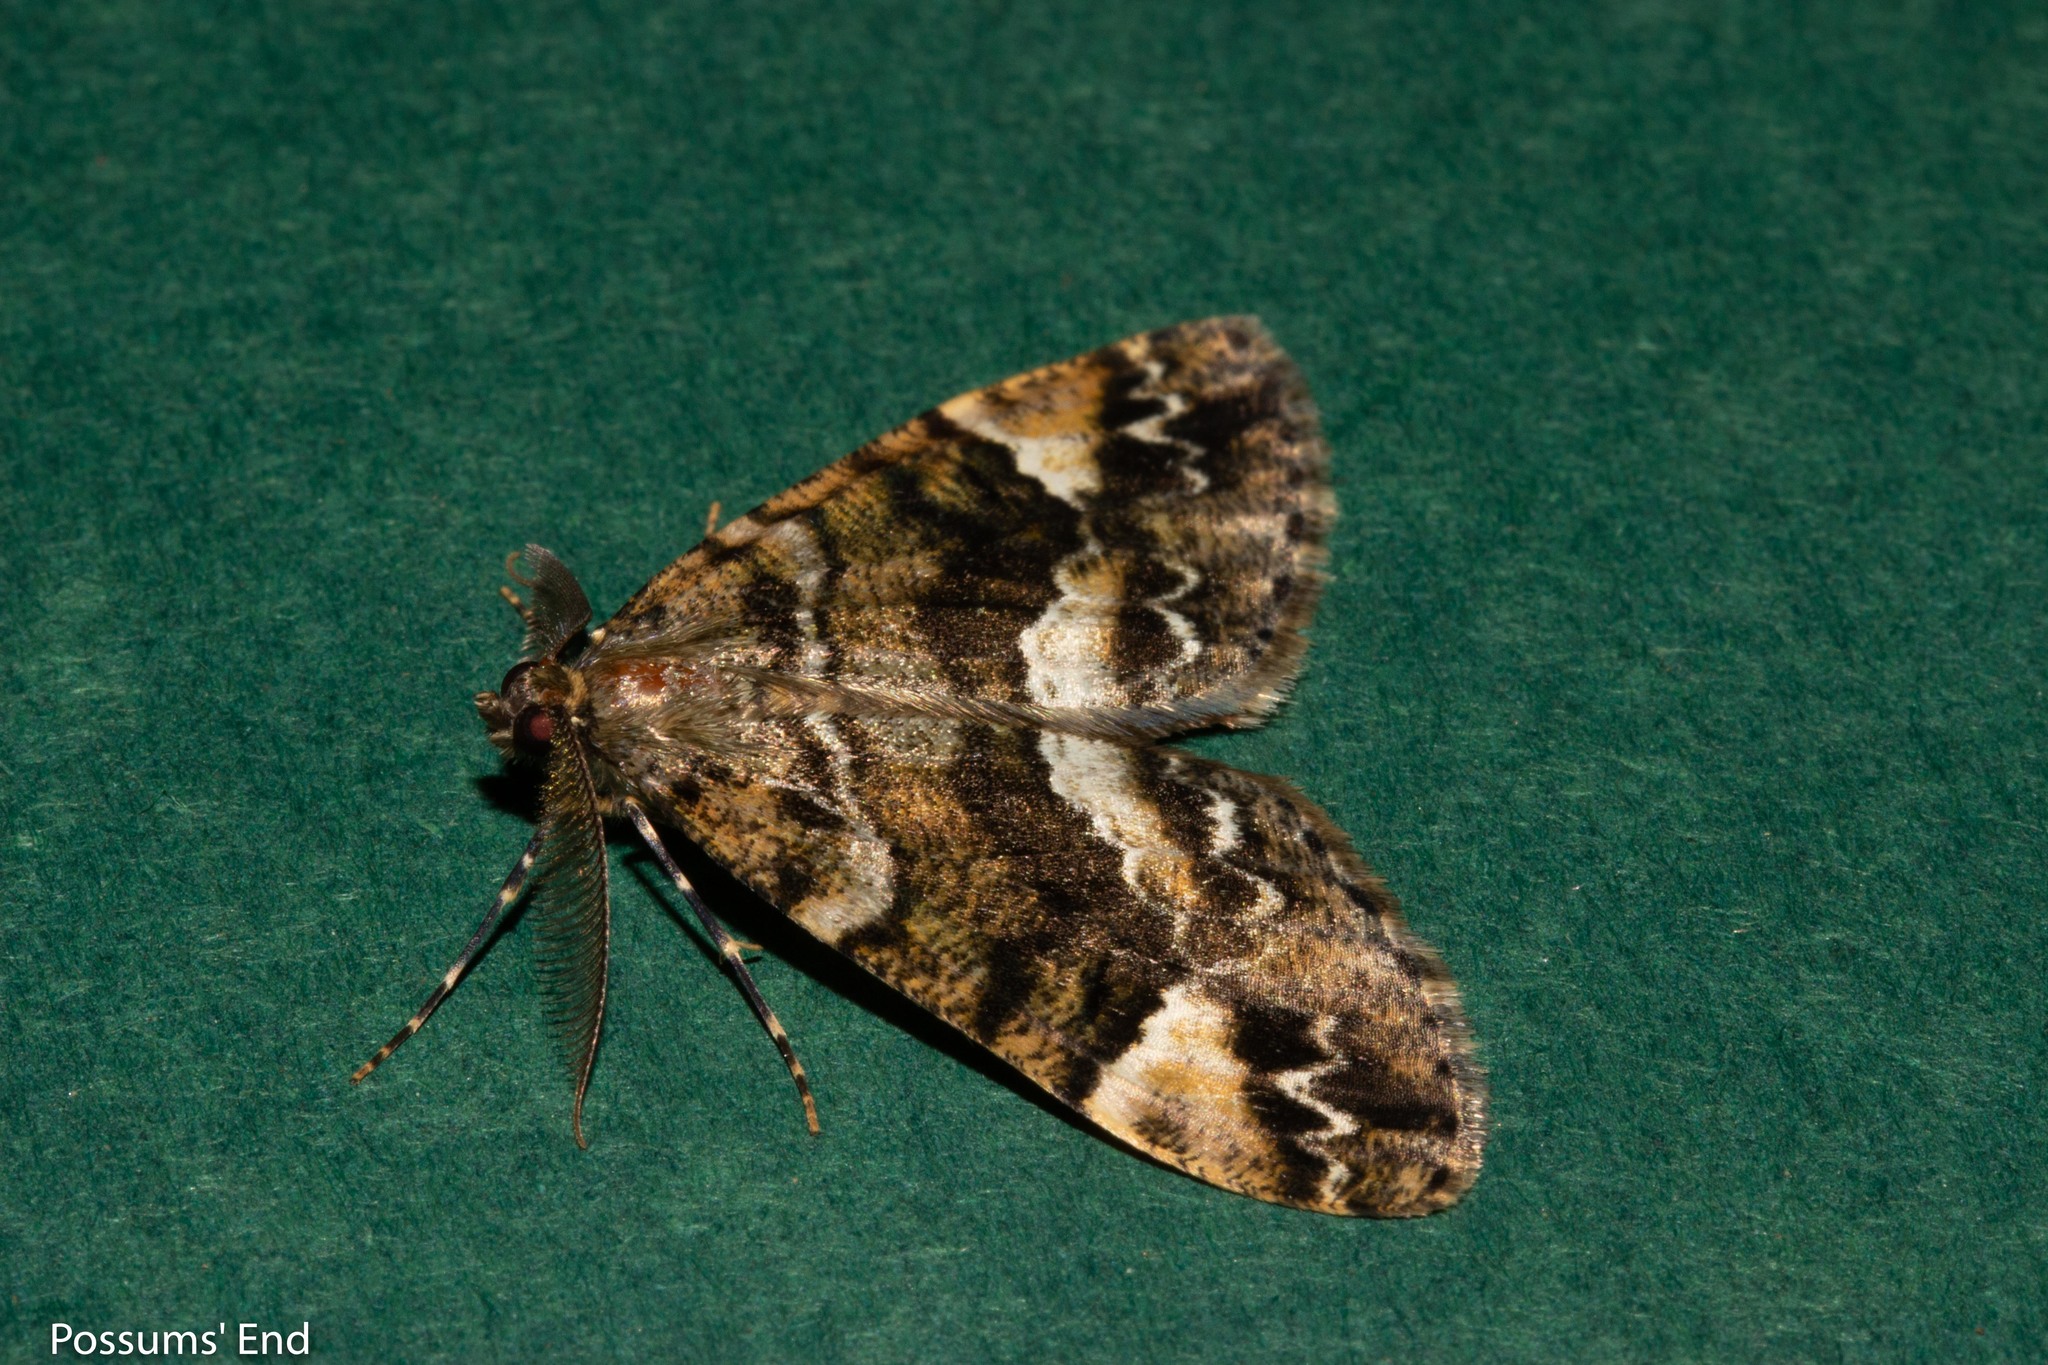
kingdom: Animalia
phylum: Arthropoda
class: Insecta
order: Lepidoptera
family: Geometridae
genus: Pseudocoremia
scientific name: Pseudocoremia productata
